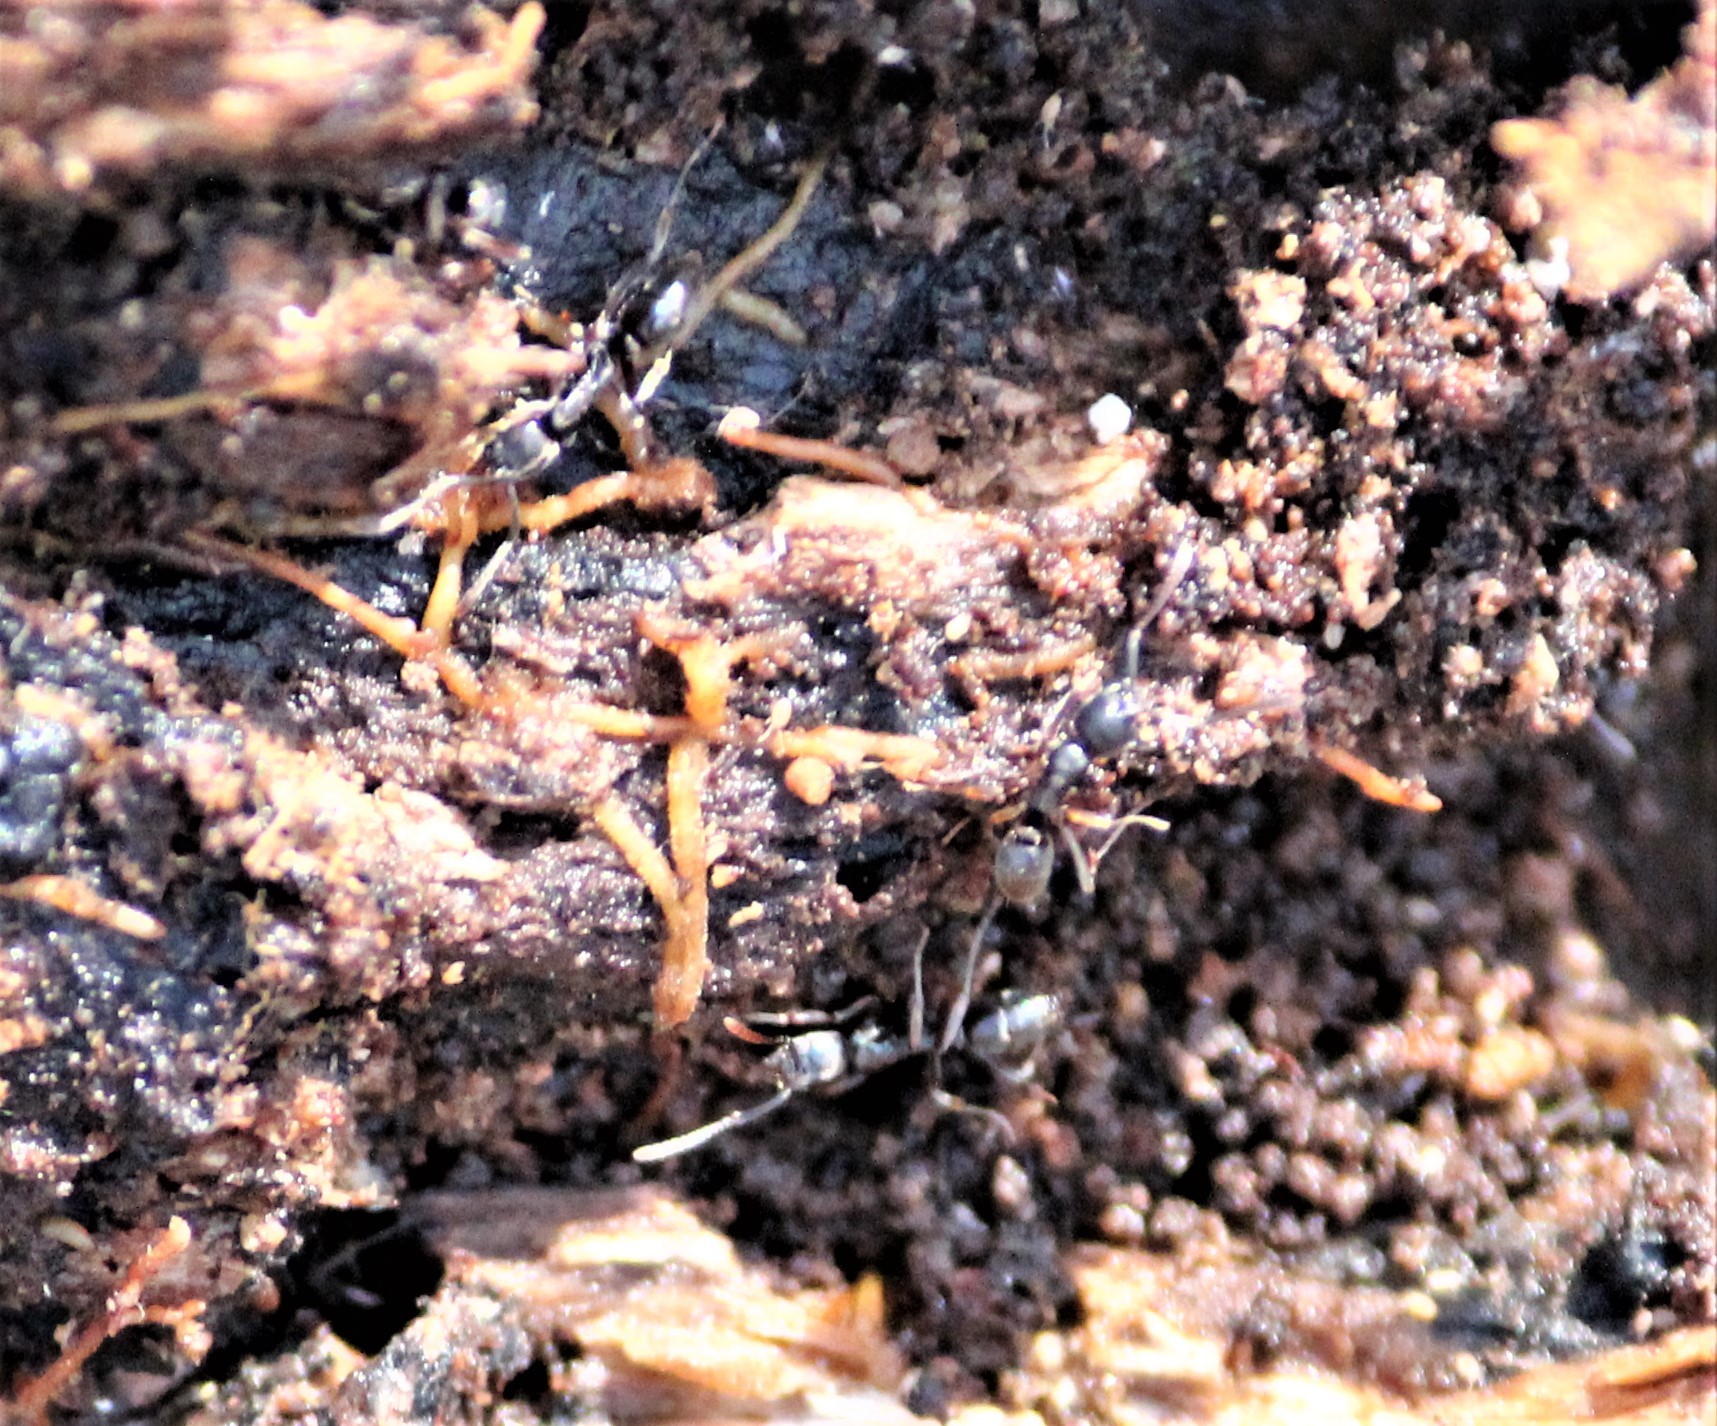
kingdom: Animalia
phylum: Arthropoda
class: Insecta
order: Hymenoptera
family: Formicidae
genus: Pachycondyla
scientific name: Pachycondyla chinensis
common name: Asian needle ant
